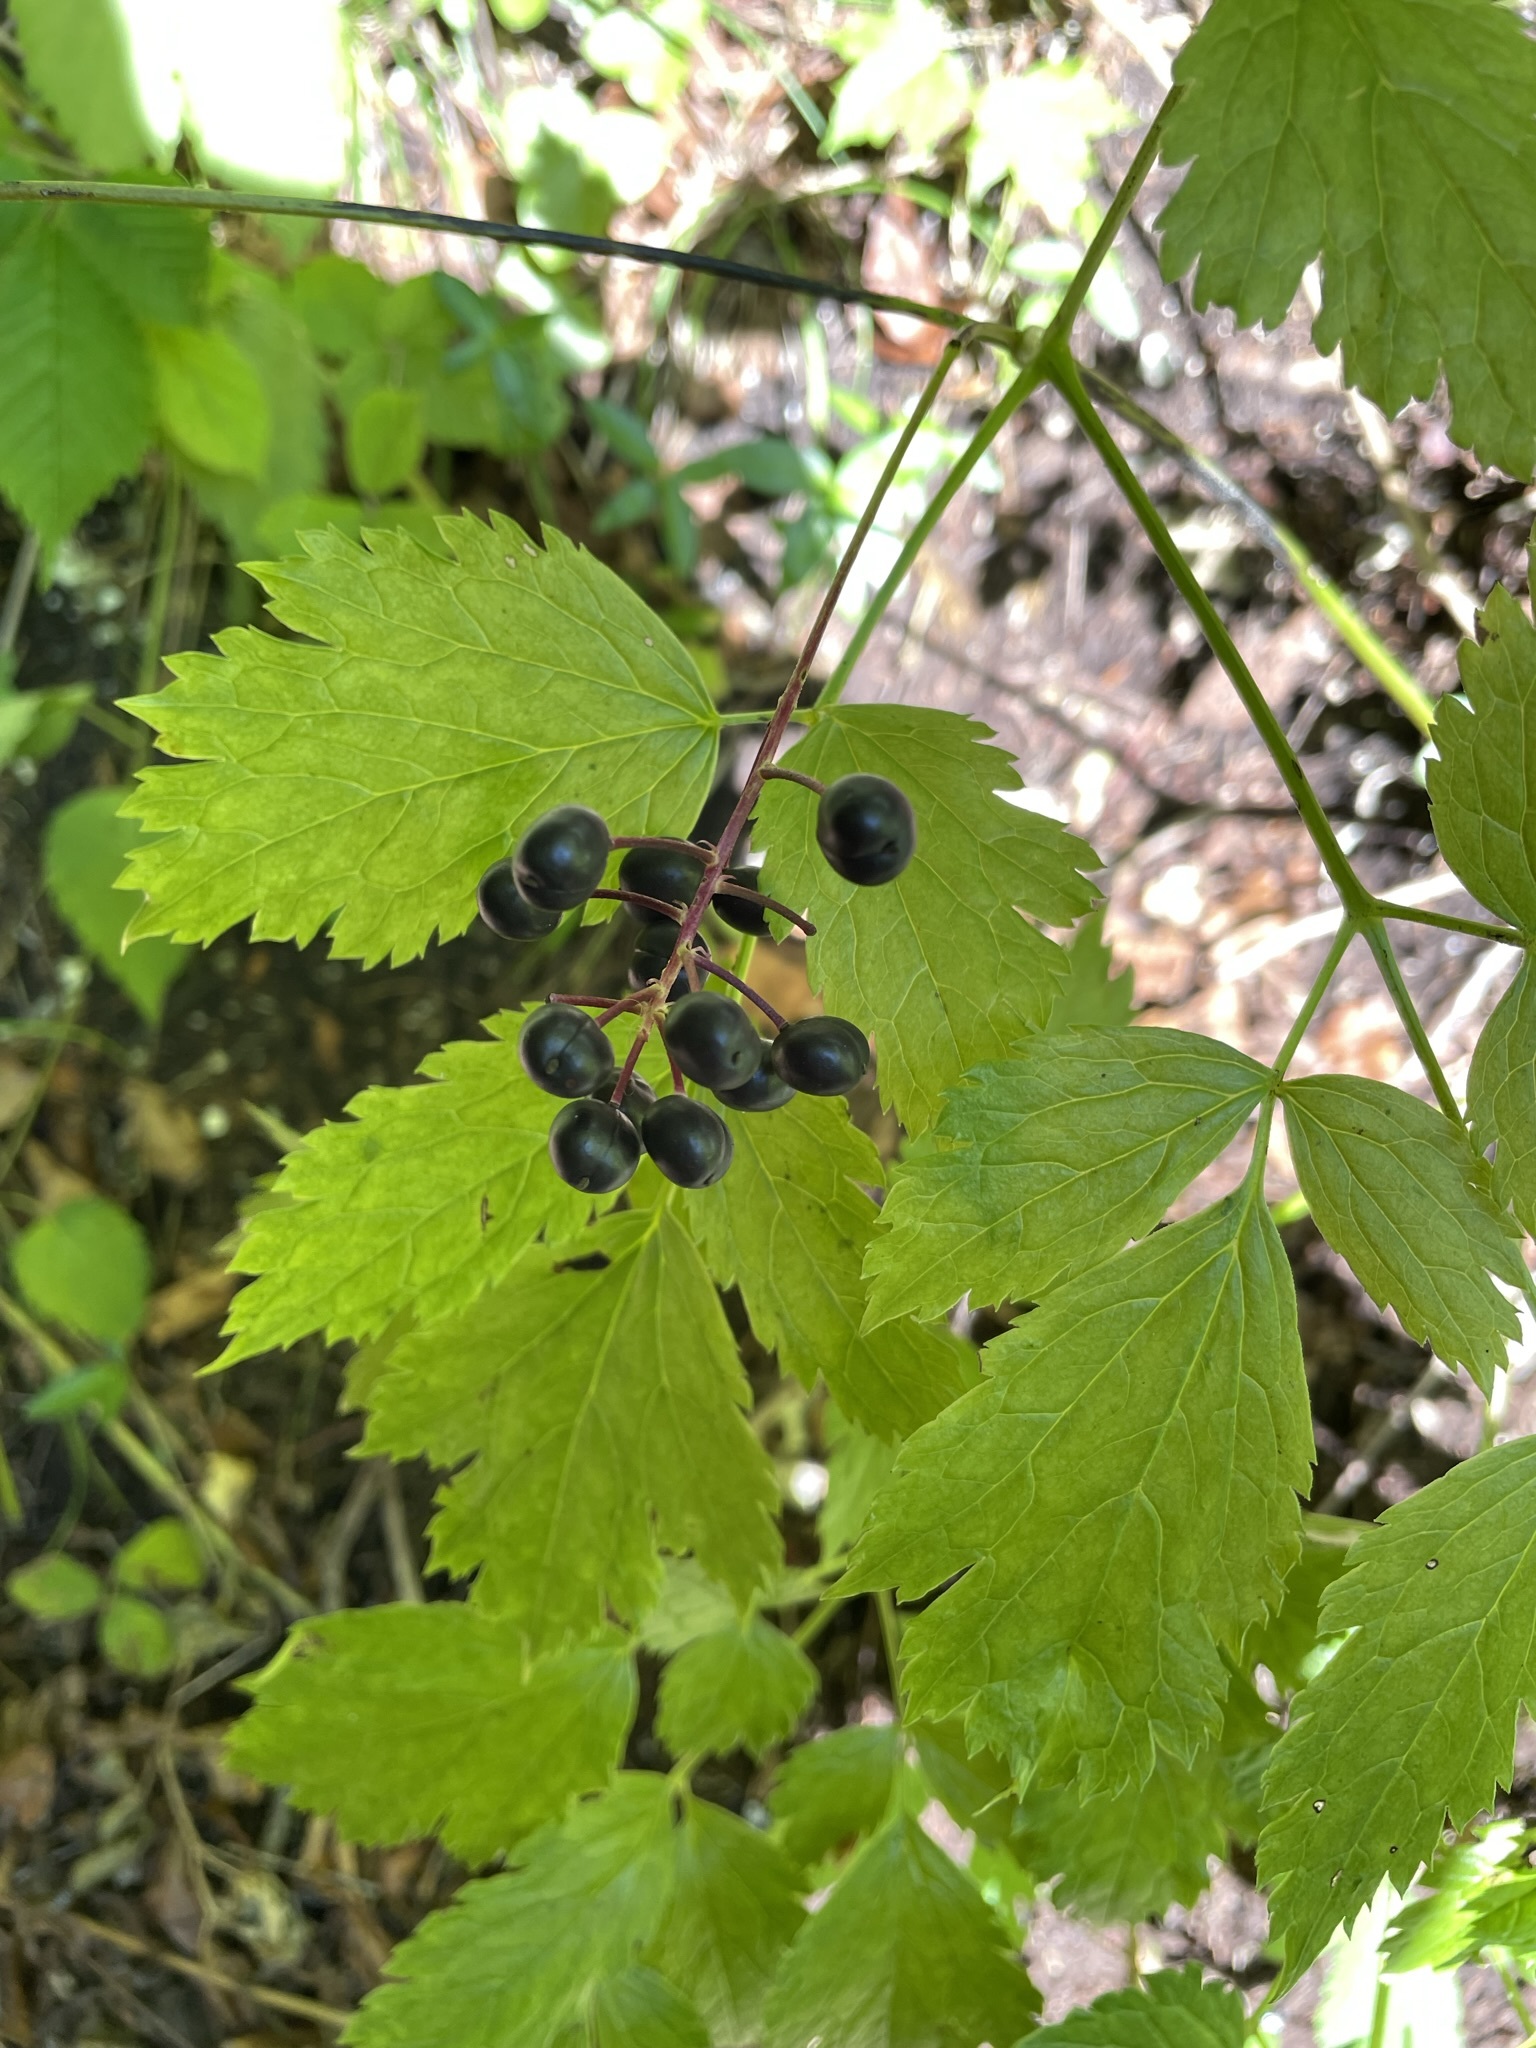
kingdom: Plantae
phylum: Tracheophyta
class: Magnoliopsida
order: Ranunculales
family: Ranunculaceae
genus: Actaea
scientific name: Actaea spicata
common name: Baneberry
